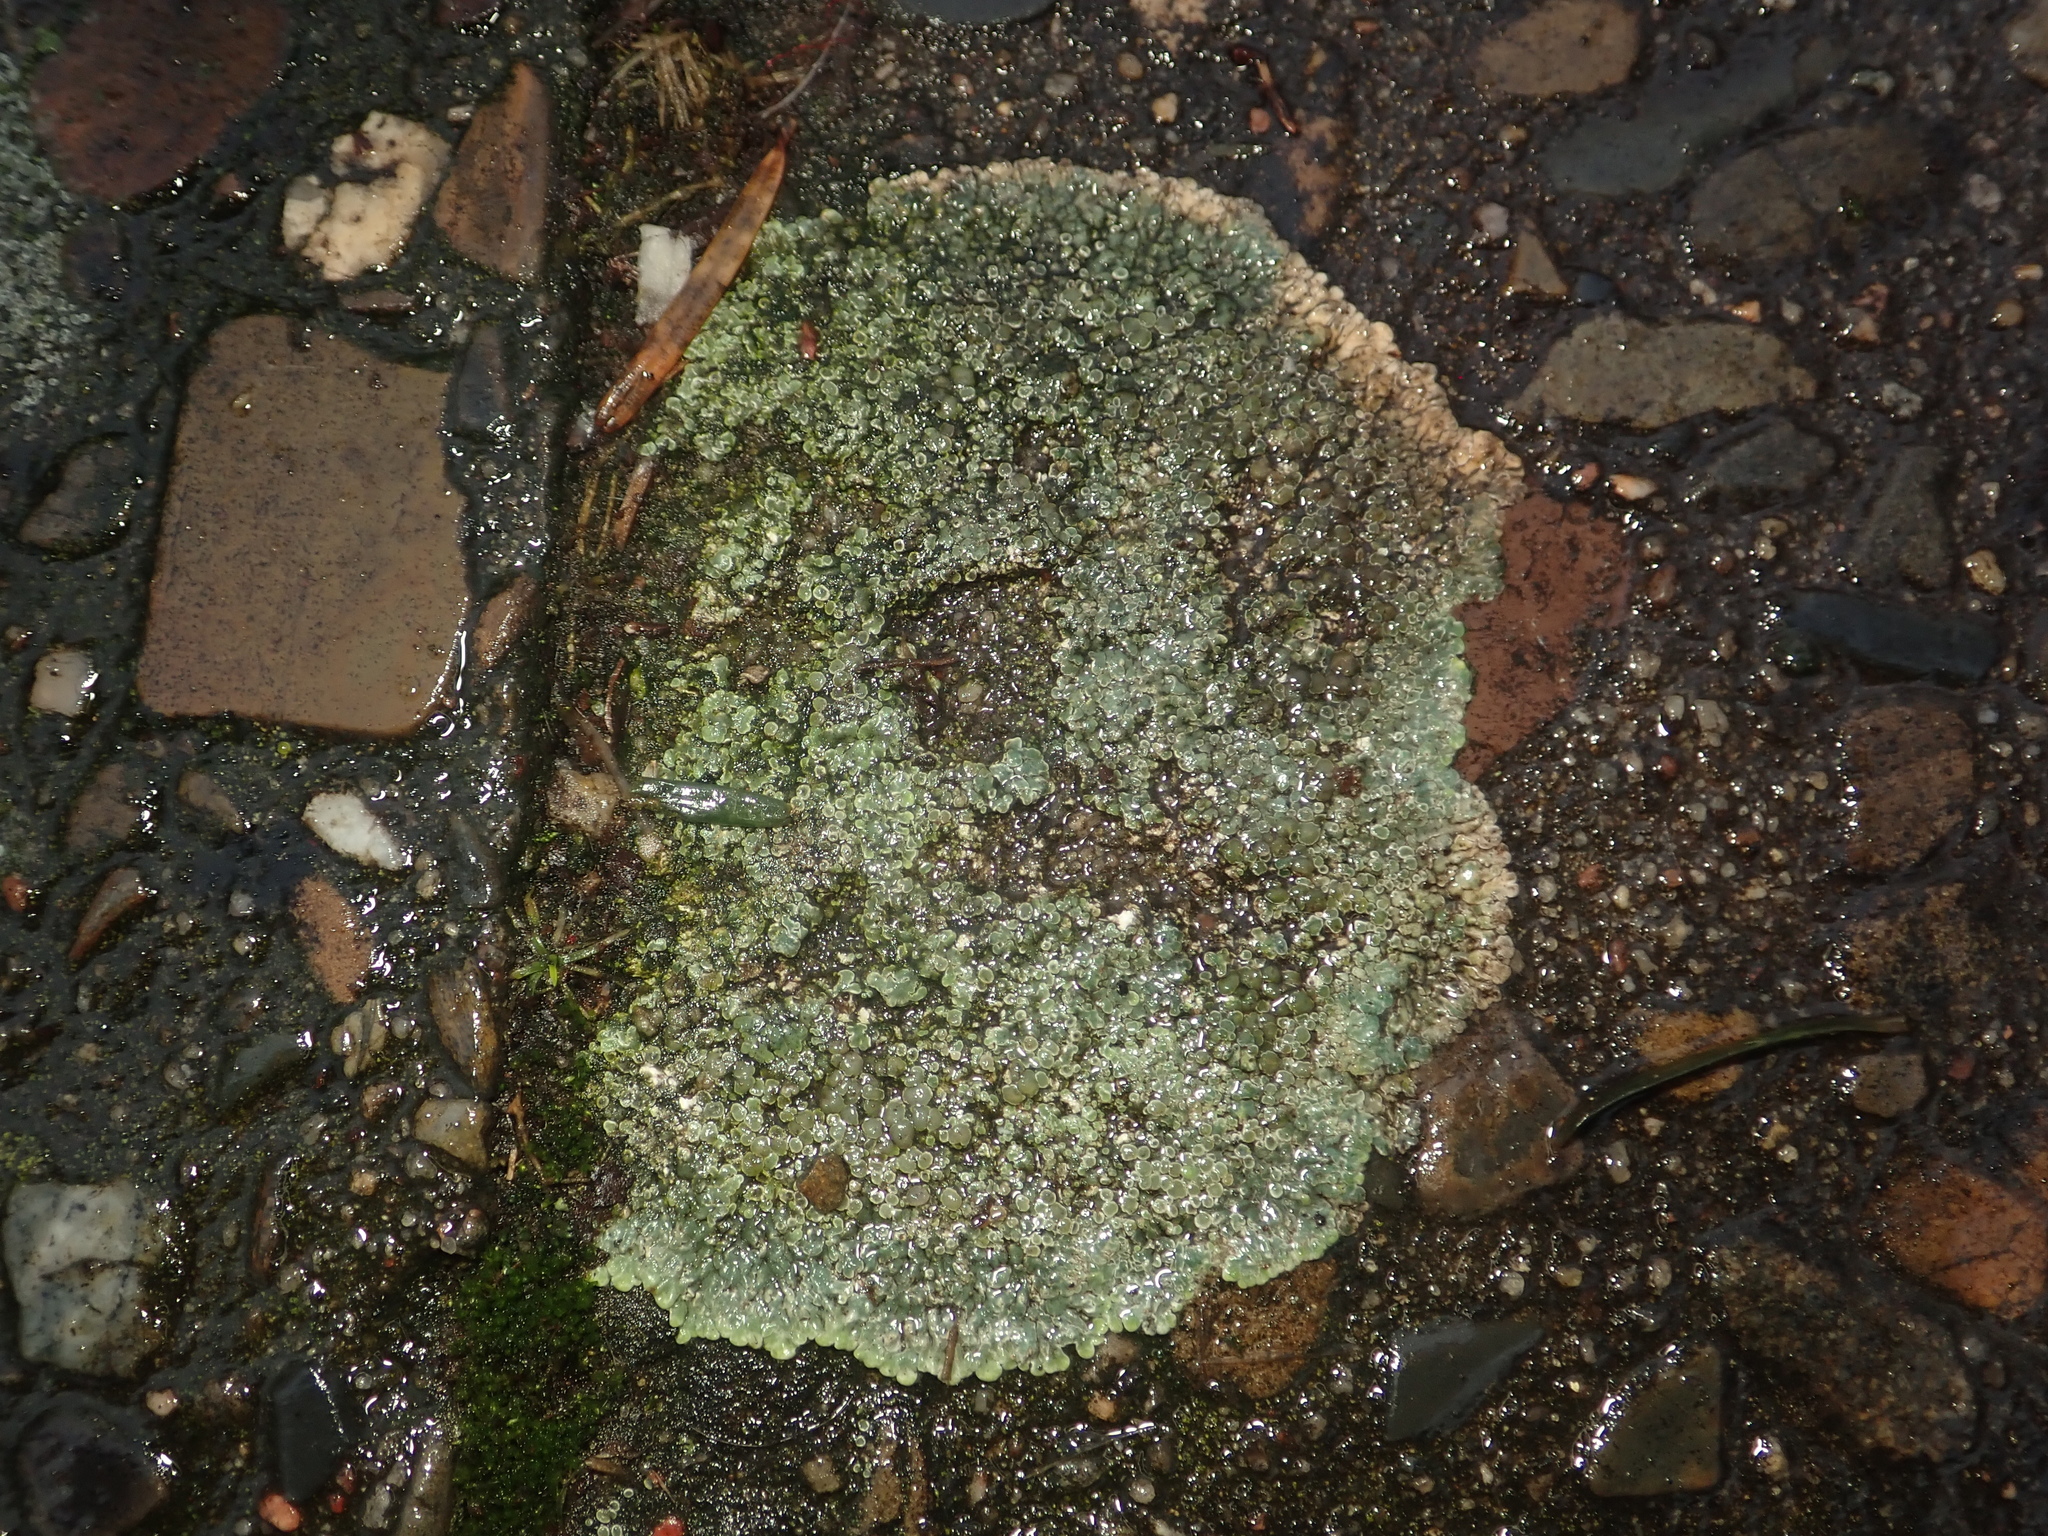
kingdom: Fungi
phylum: Ascomycota
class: Lecanoromycetes
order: Lecanorales
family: Lecanoraceae
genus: Protoparmeliopsis
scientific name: Protoparmeliopsis muralis
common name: Stonewall rim lichen
